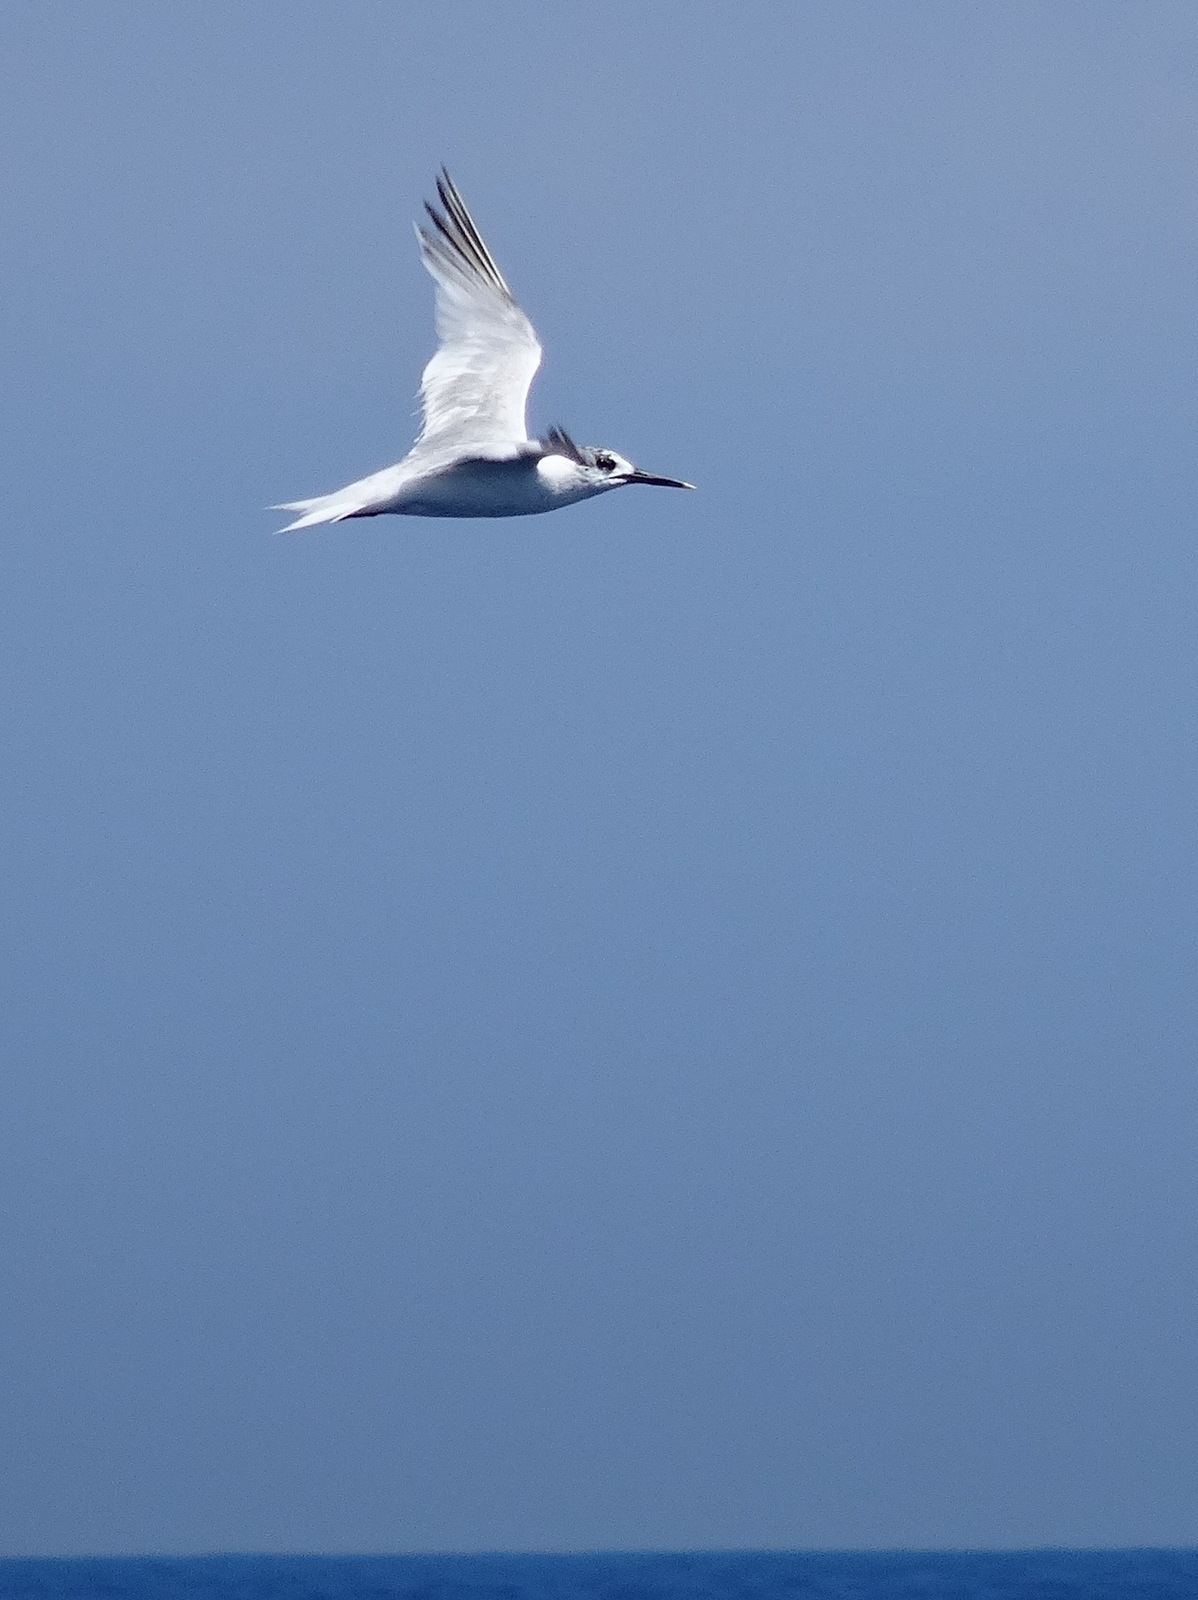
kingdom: Animalia
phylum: Chordata
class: Aves
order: Charadriiformes
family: Laridae
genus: Thalasseus
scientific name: Thalasseus sandvicensis
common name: Sandwich tern
